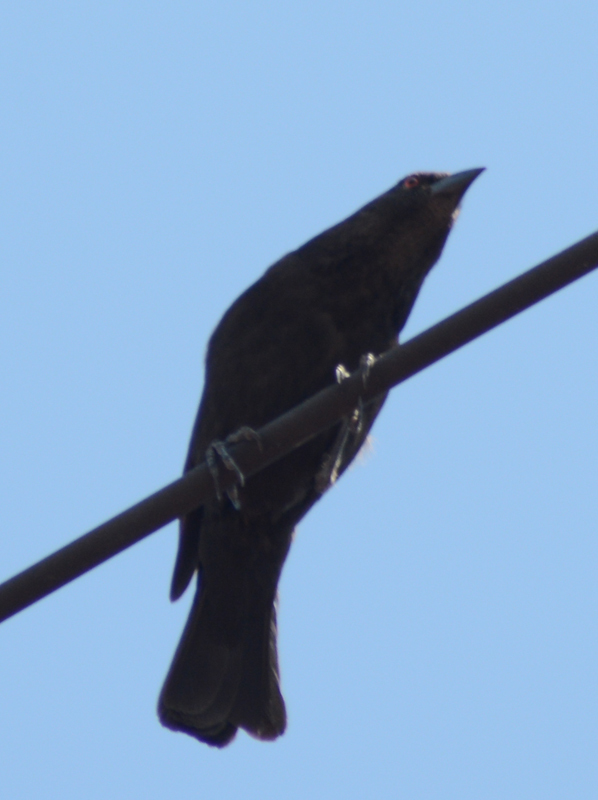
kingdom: Animalia
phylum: Chordata
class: Aves
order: Passeriformes
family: Icteridae
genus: Molothrus
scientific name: Molothrus aeneus
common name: Bronzed cowbird
